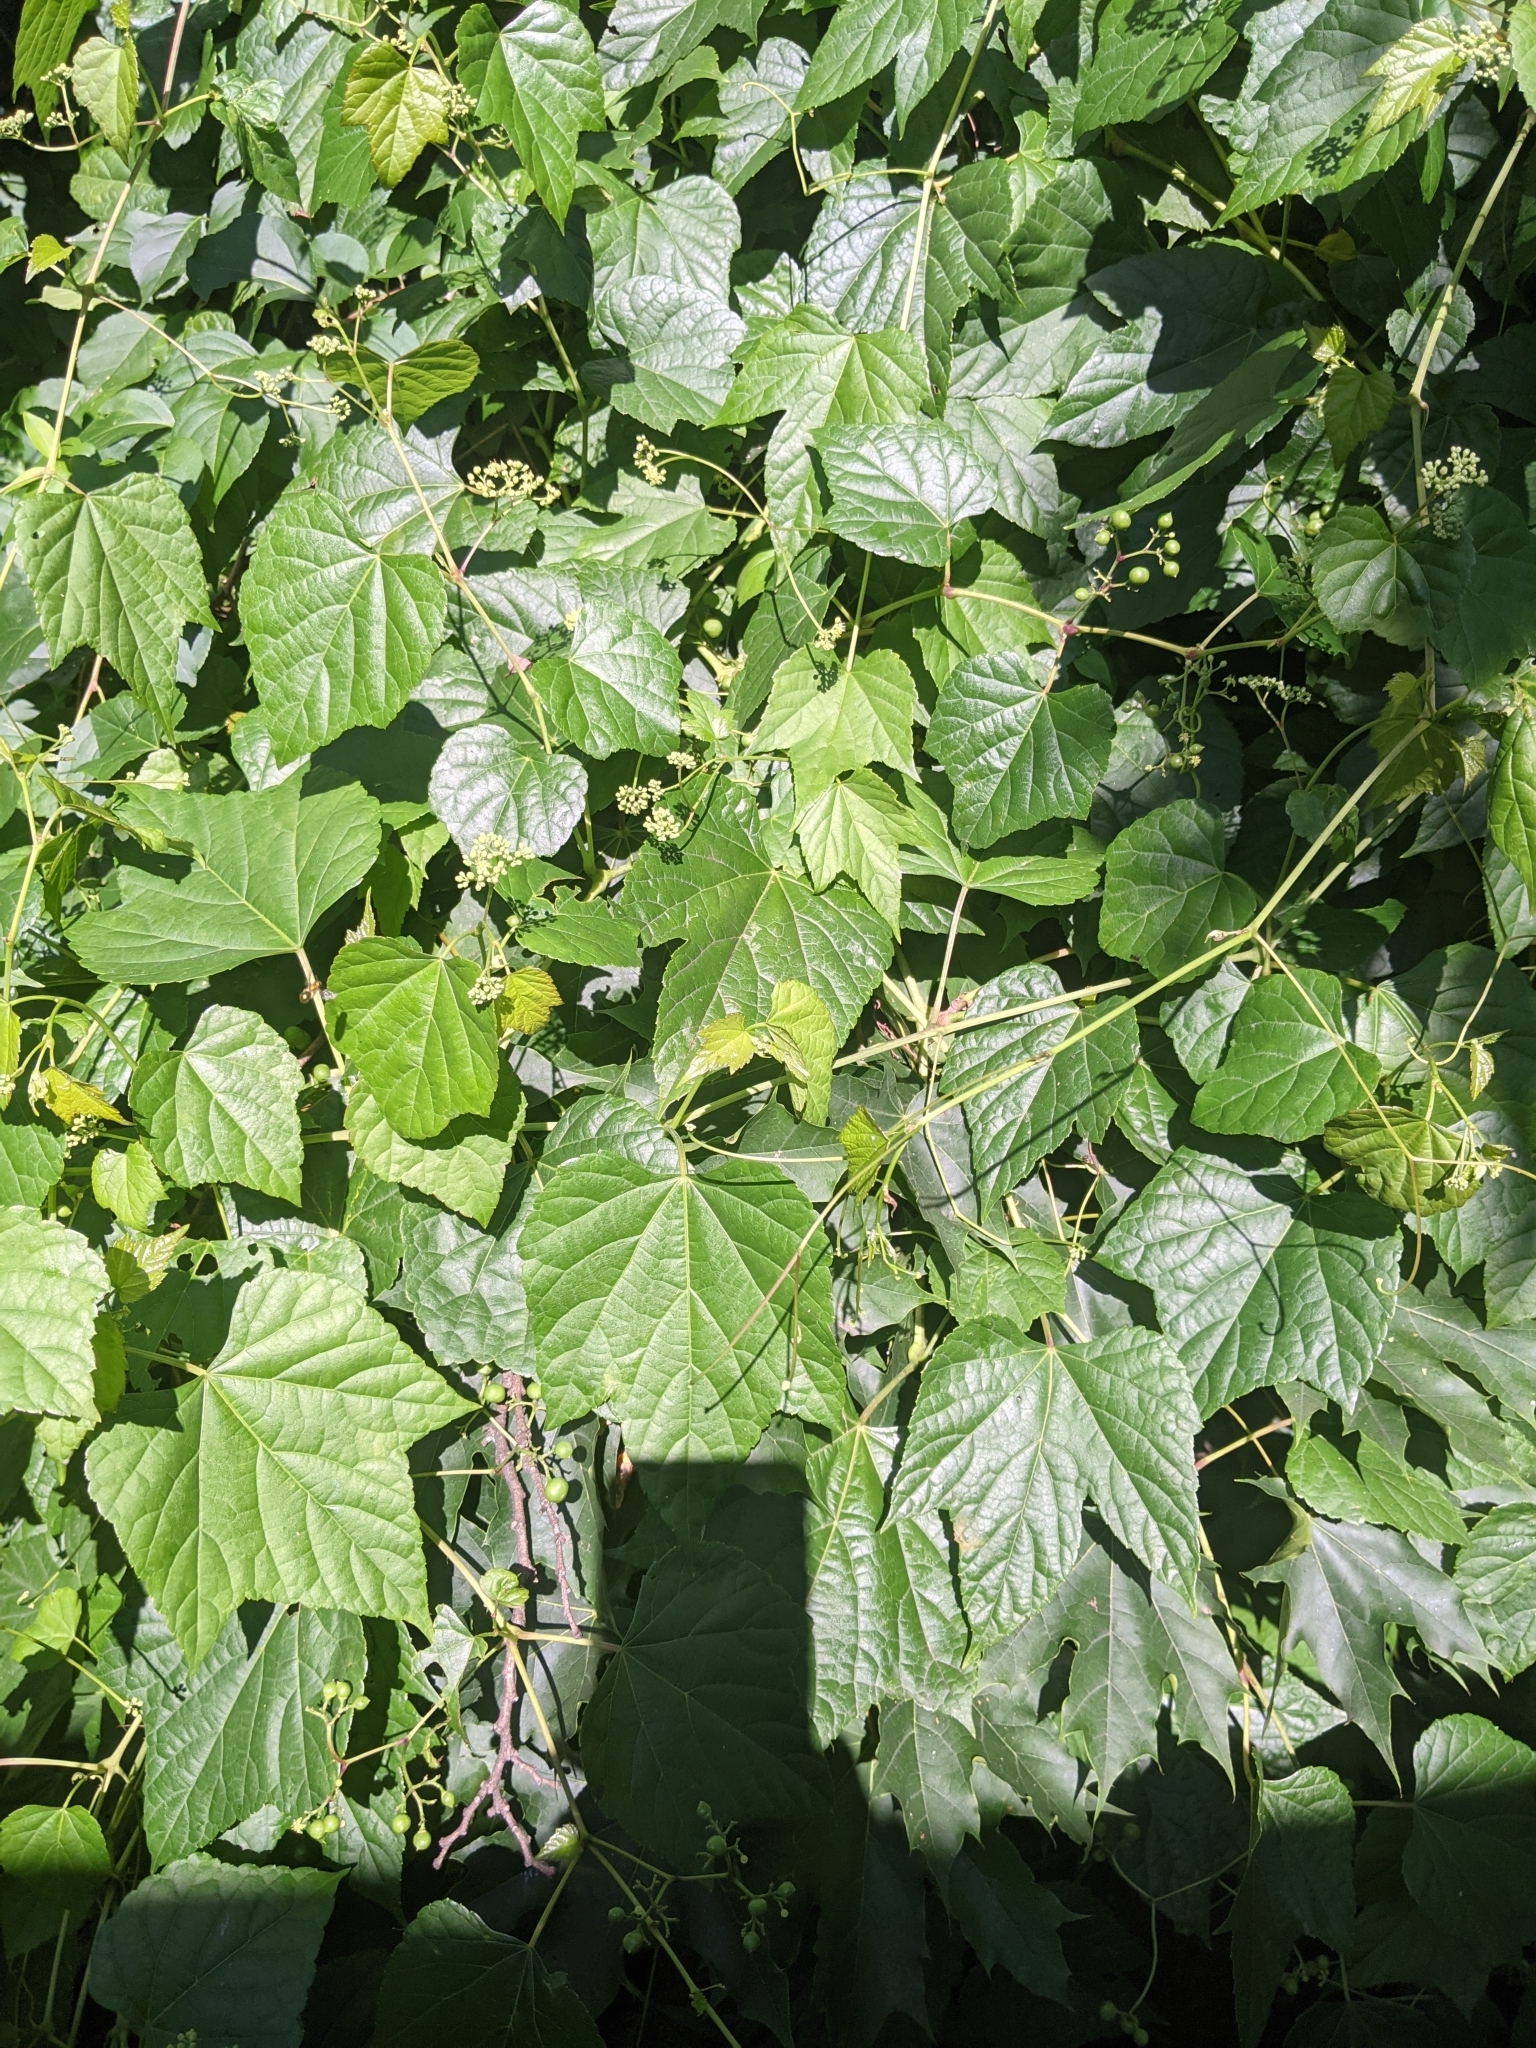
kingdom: Plantae
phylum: Tracheophyta
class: Magnoliopsida
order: Vitales
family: Vitaceae
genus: Ampelopsis
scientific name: Ampelopsis glandulosa
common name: Amur peppervine
